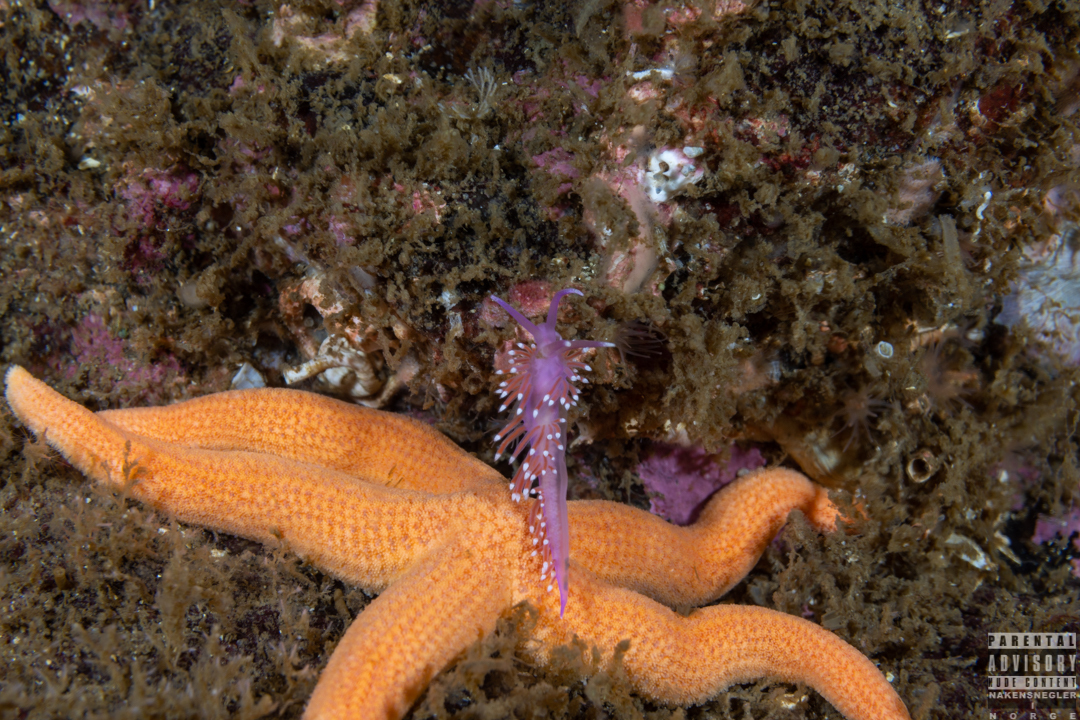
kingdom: Animalia
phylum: Mollusca
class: Gastropoda
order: Nudibranchia
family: Flabellinidae
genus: Edmundsella
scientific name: Edmundsella pedata
